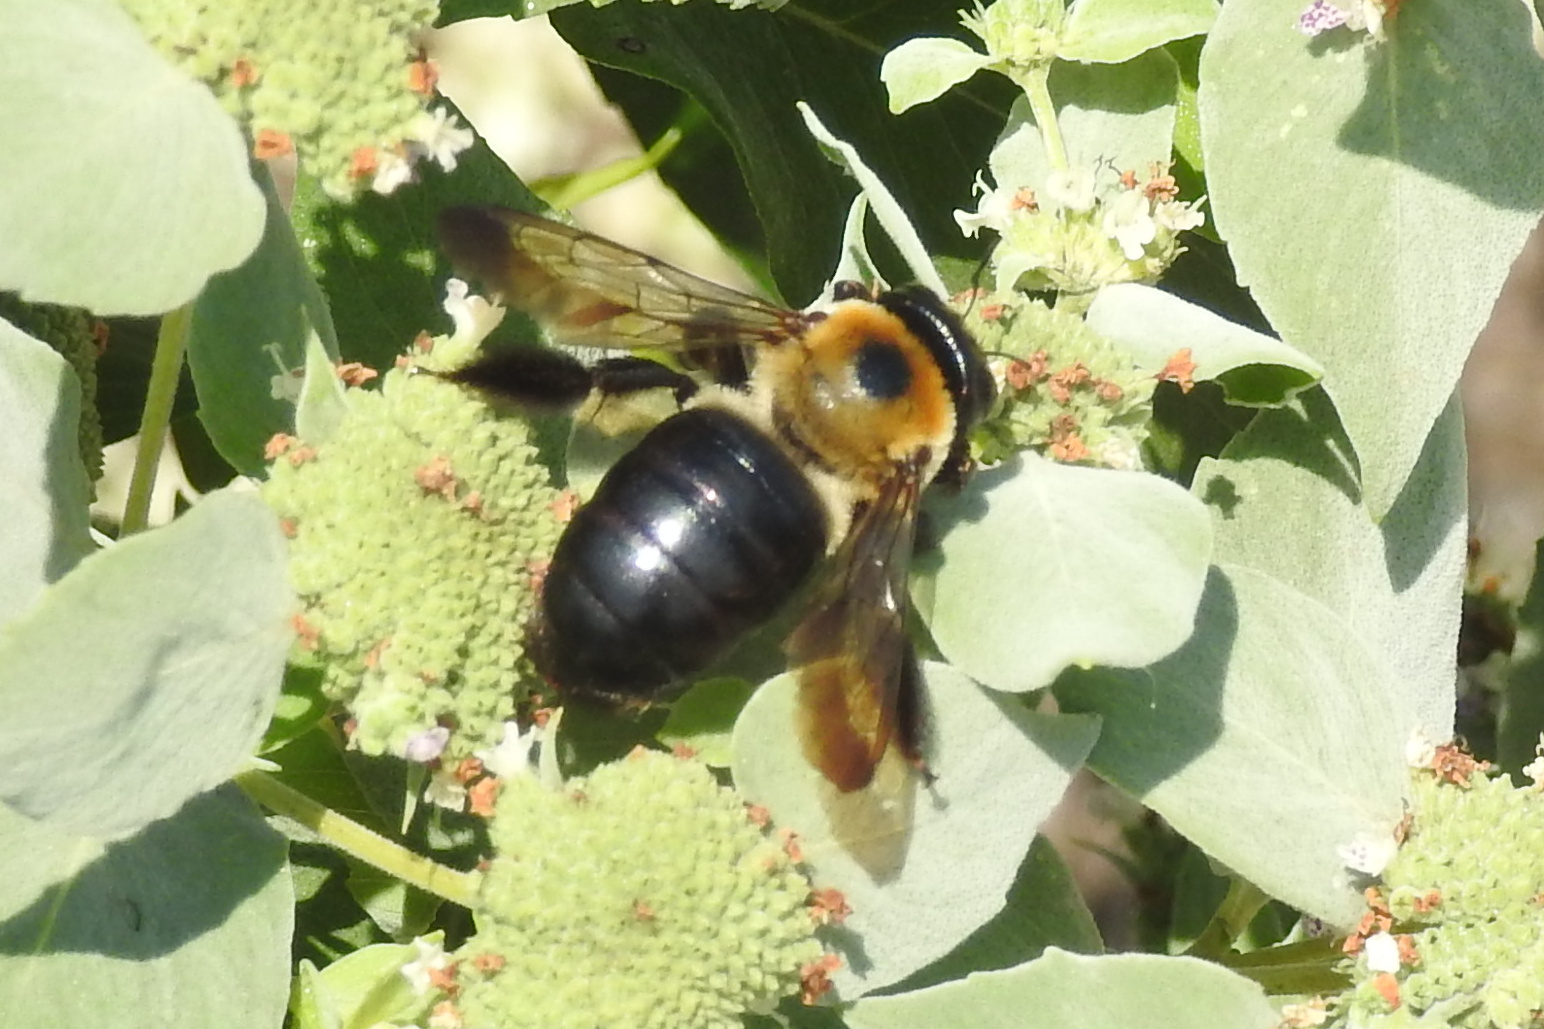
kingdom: Animalia
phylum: Arthropoda
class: Insecta
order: Hymenoptera
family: Apidae
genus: Xylocopa
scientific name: Xylocopa virginica
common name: Carpenter bee
